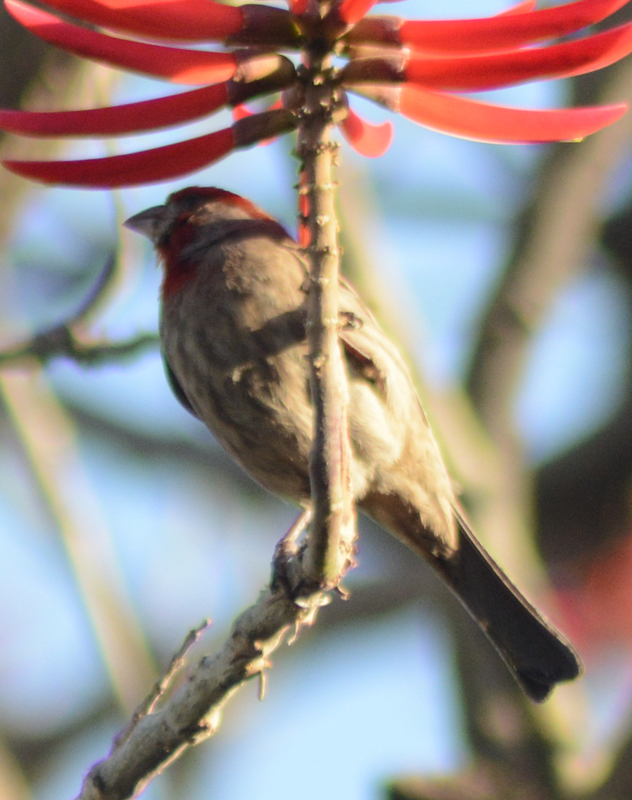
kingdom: Animalia
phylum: Chordata
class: Aves
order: Passeriformes
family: Fringillidae
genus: Haemorhous
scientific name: Haemorhous mexicanus
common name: House finch
